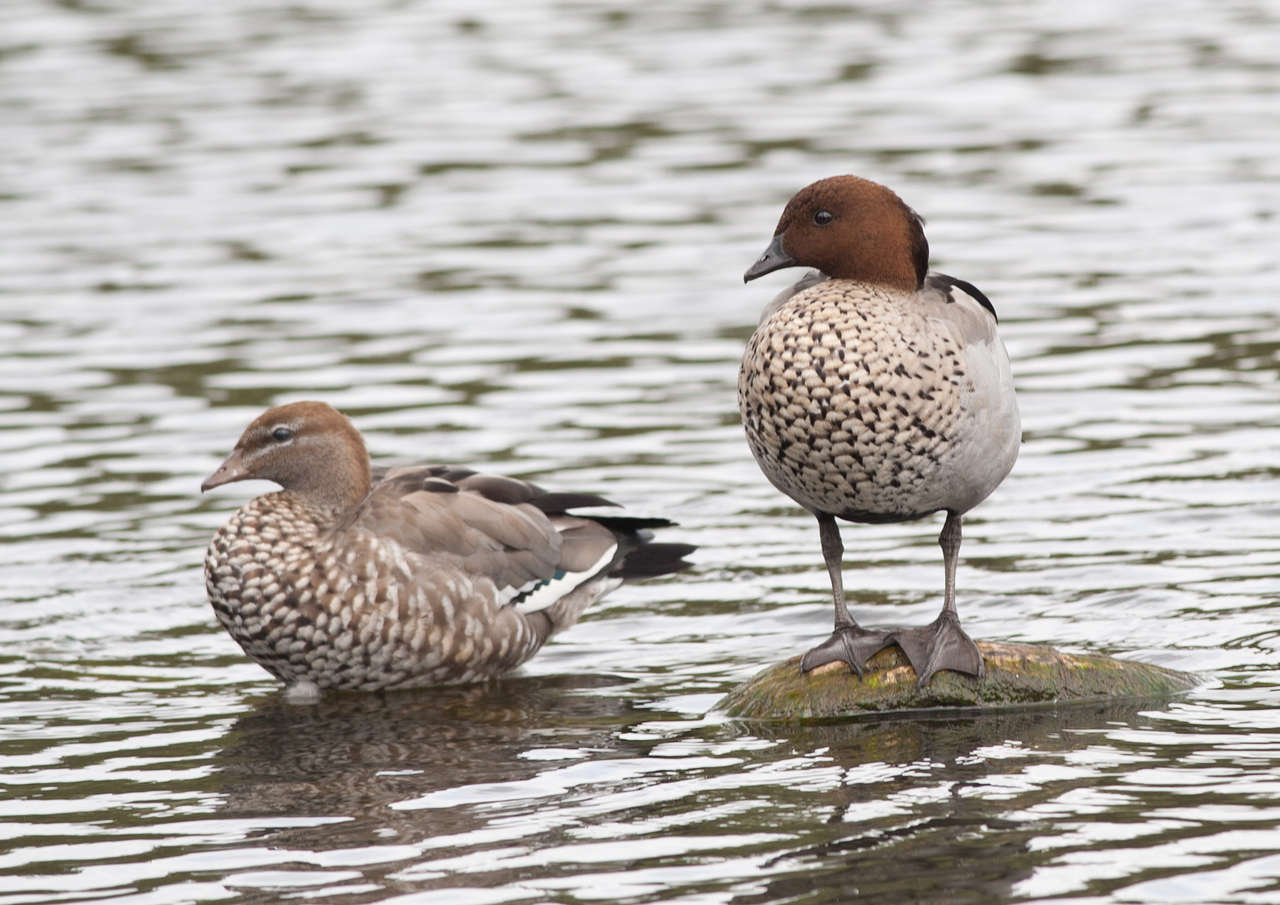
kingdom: Animalia
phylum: Chordata
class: Aves
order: Anseriformes
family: Anatidae
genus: Chenonetta
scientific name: Chenonetta jubata
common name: Maned duck
